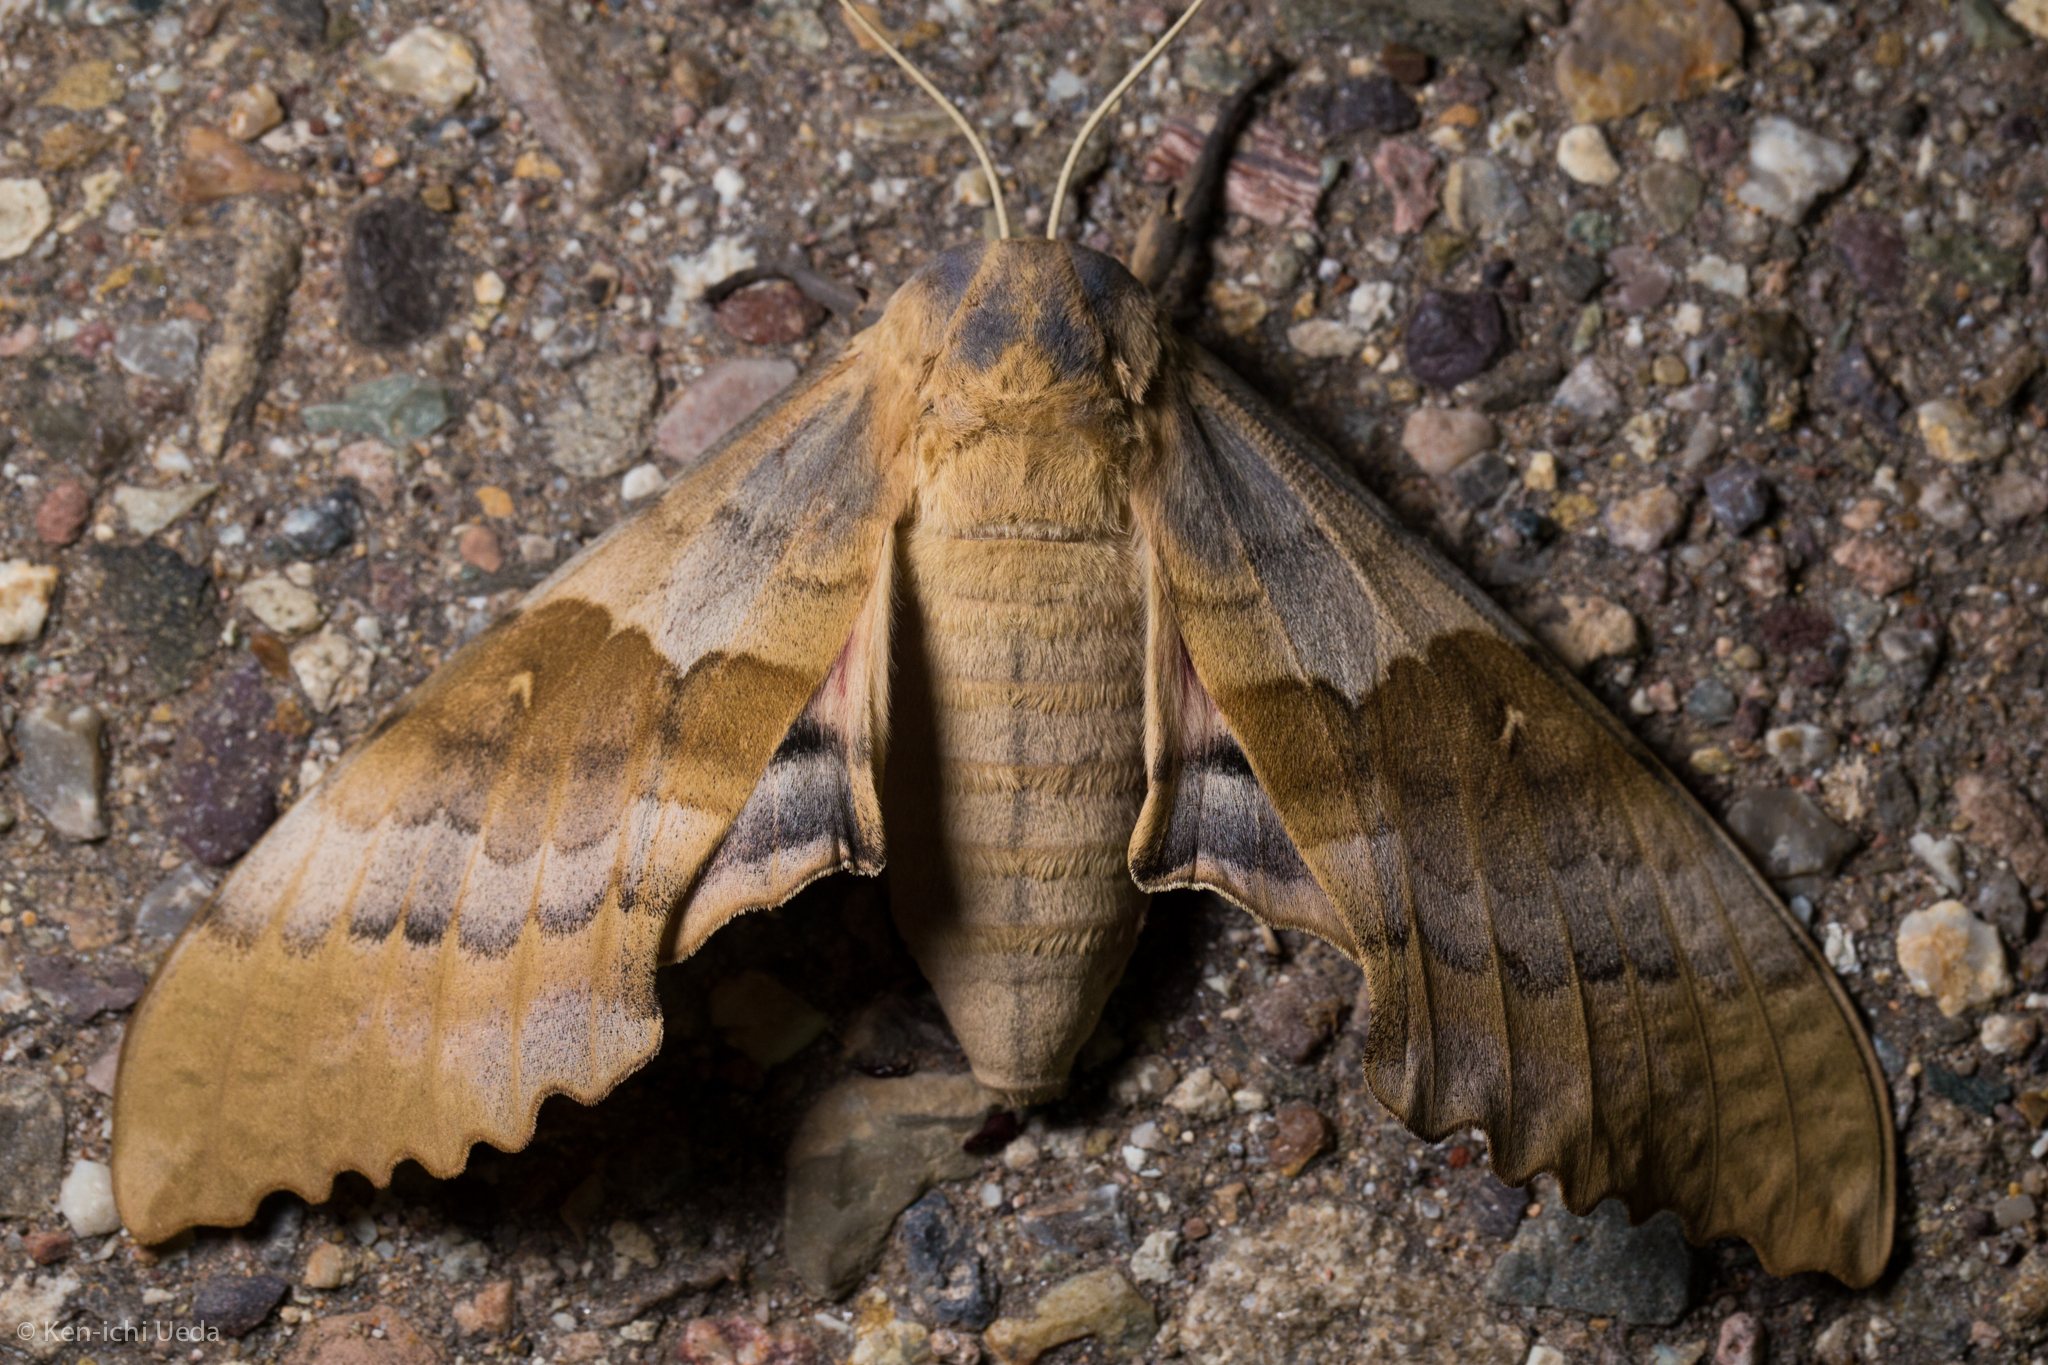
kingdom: Animalia
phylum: Arthropoda
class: Insecta
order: Lepidoptera
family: Sphingidae
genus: Pachysphinx
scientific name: Pachysphinx occidentalis
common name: Western poplar sphinx
